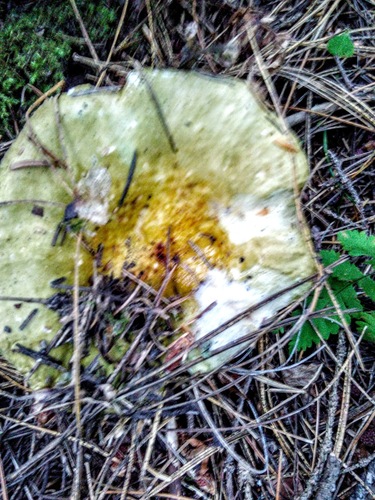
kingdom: Fungi
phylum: Basidiomycota
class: Agaricomycetes
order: Russulales
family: Russulaceae
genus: Russula
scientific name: Russula aeruginea
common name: Green brittlegill
